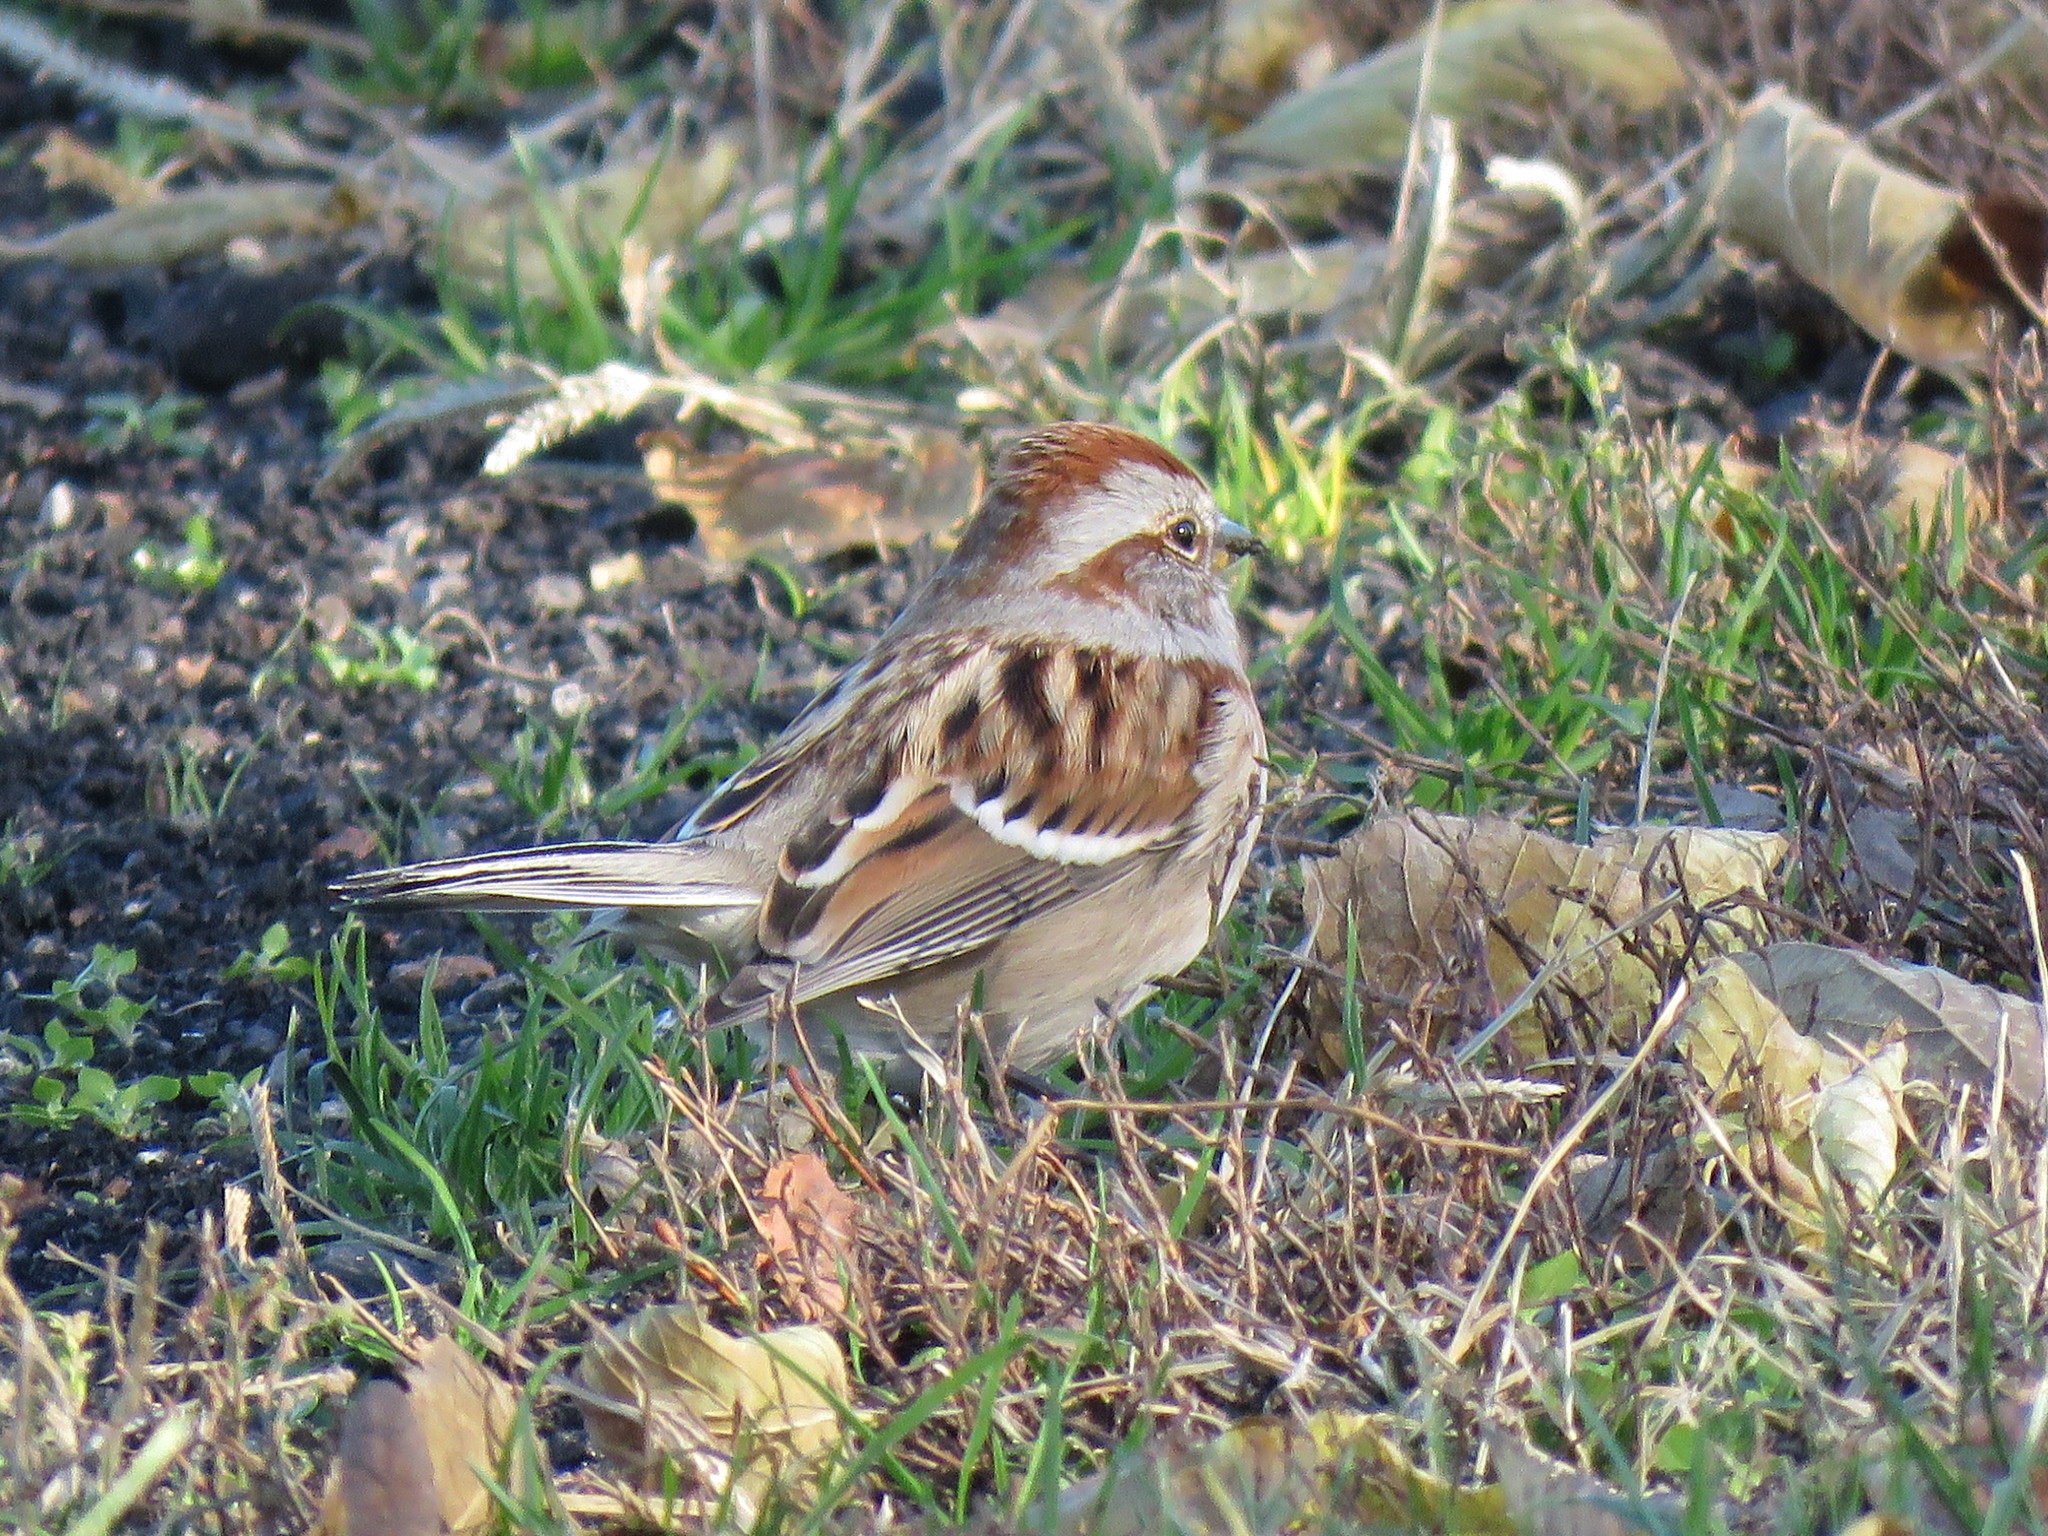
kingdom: Animalia
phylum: Chordata
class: Aves
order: Passeriformes
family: Passerellidae
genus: Spizelloides
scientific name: Spizelloides arborea
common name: American tree sparrow
